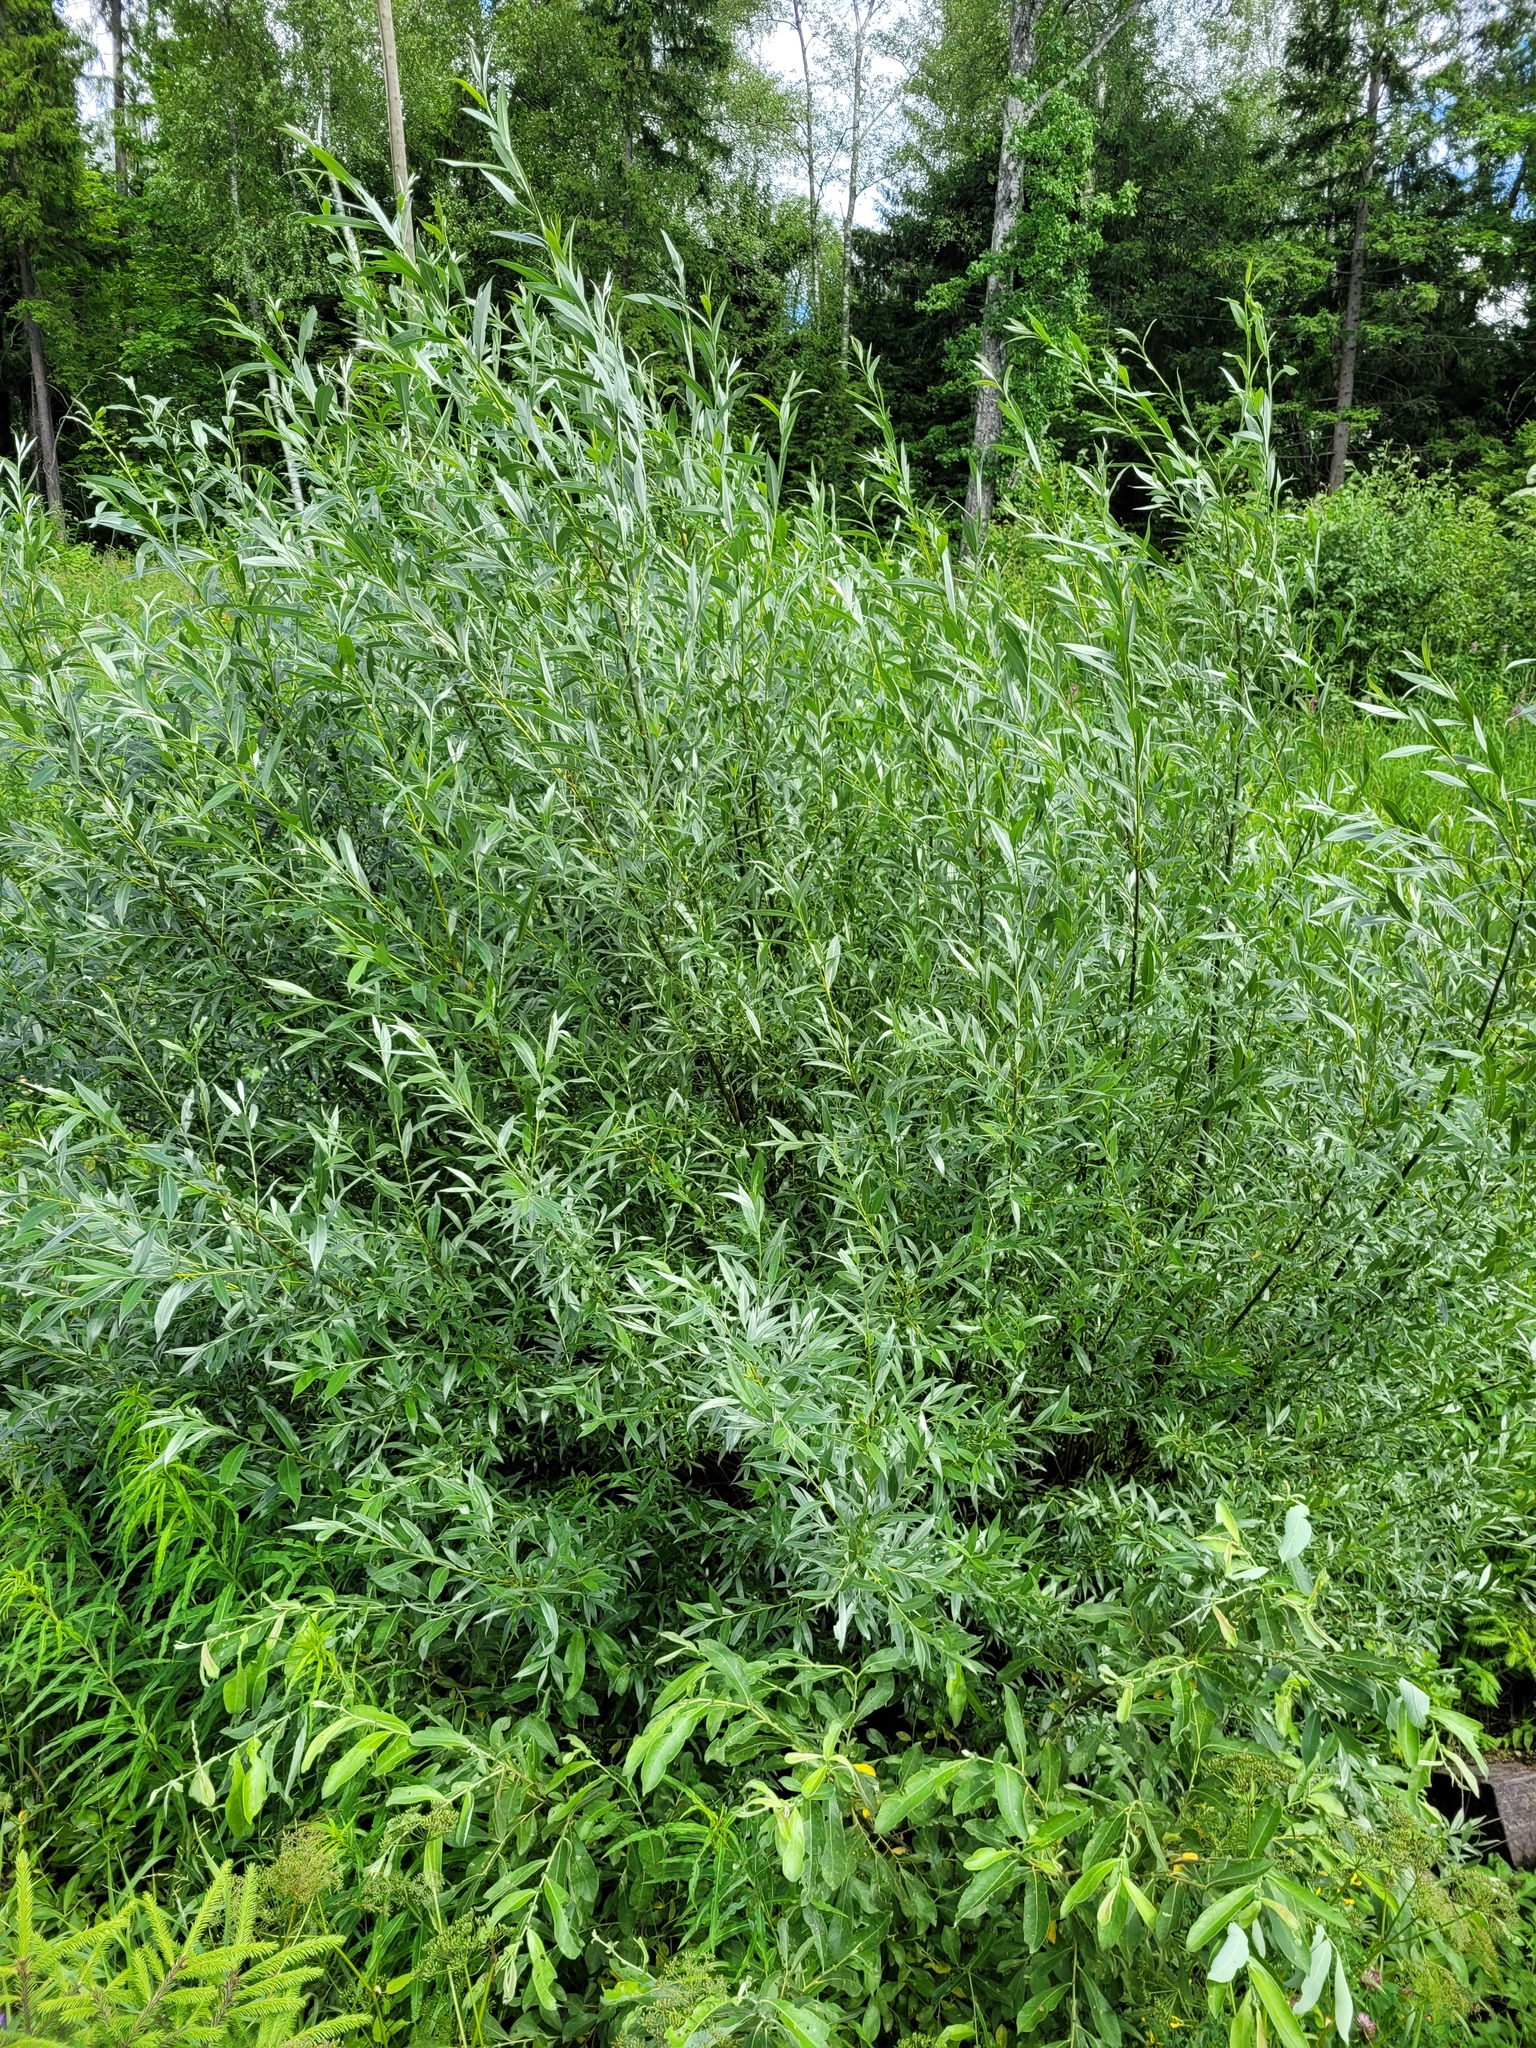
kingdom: Plantae
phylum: Tracheophyta
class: Magnoliopsida
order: Malpighiales
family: Salicaceae
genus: Salix
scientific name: Salix alba
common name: White willow
